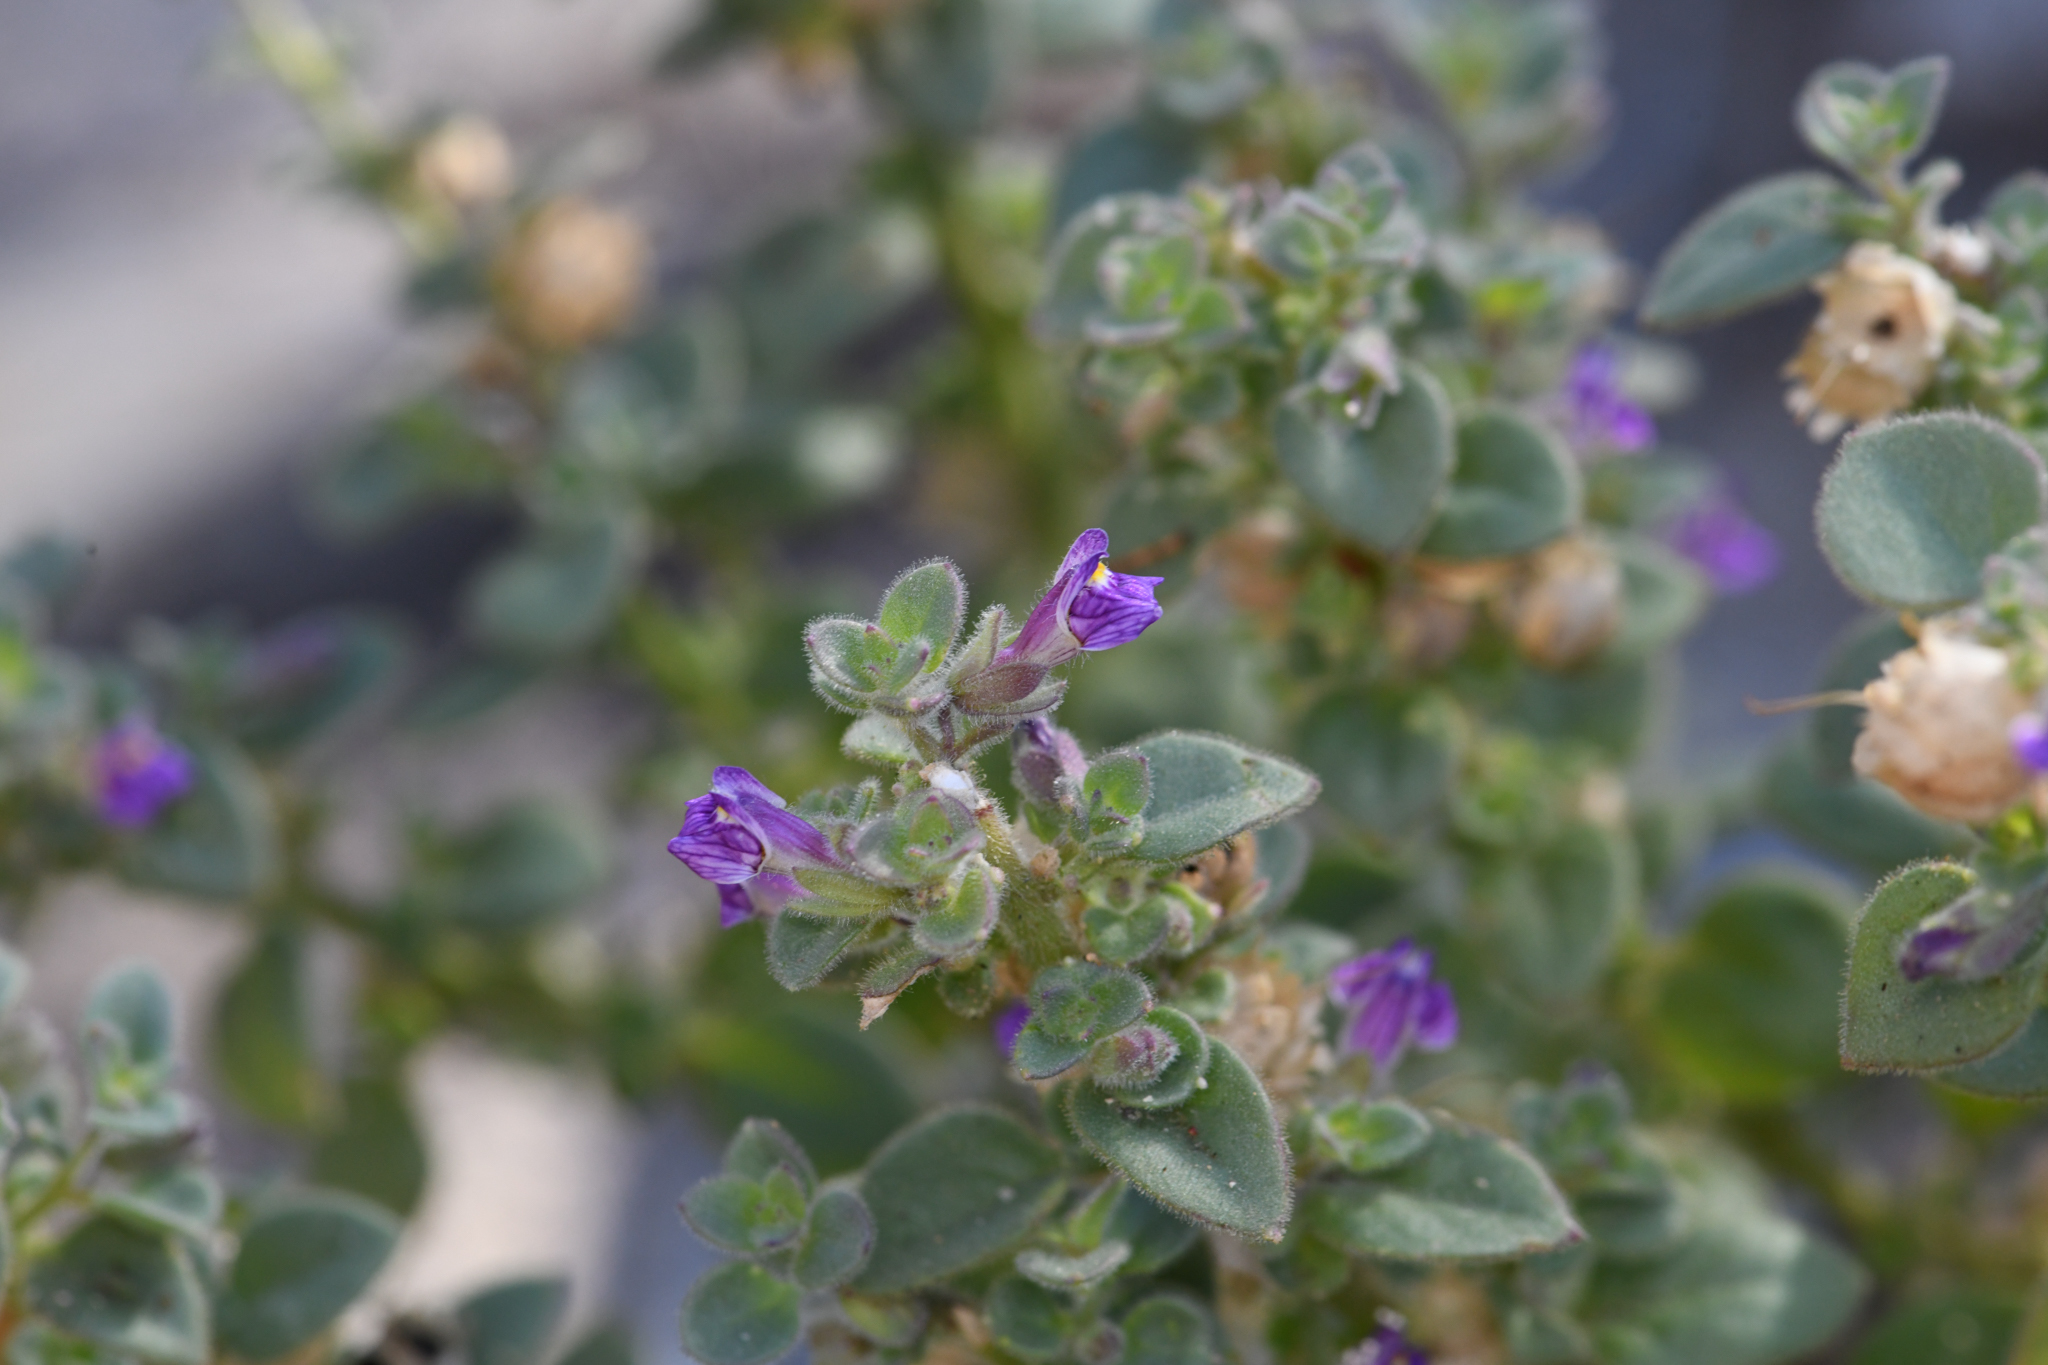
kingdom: Plantae
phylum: Tracheophyta
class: Magnoliopsida
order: Lamiales
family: Plantaginaceae
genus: Pseudorontium
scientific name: Pseudorontium cyathiferum
